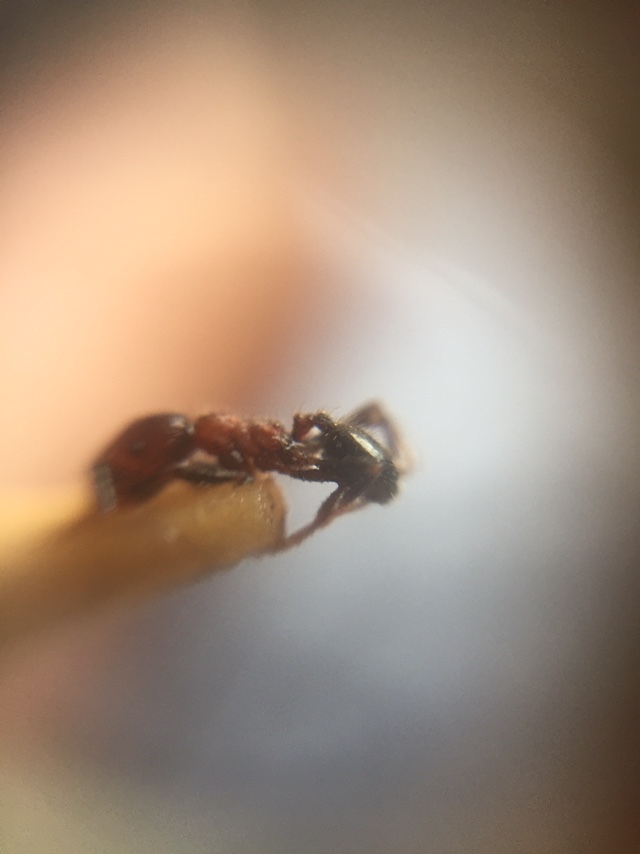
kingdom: Animalia
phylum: Arthropoda
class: Insecta
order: Hymenoptera
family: Formicidae
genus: Trichomyrmex
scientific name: Trichomyrmex
